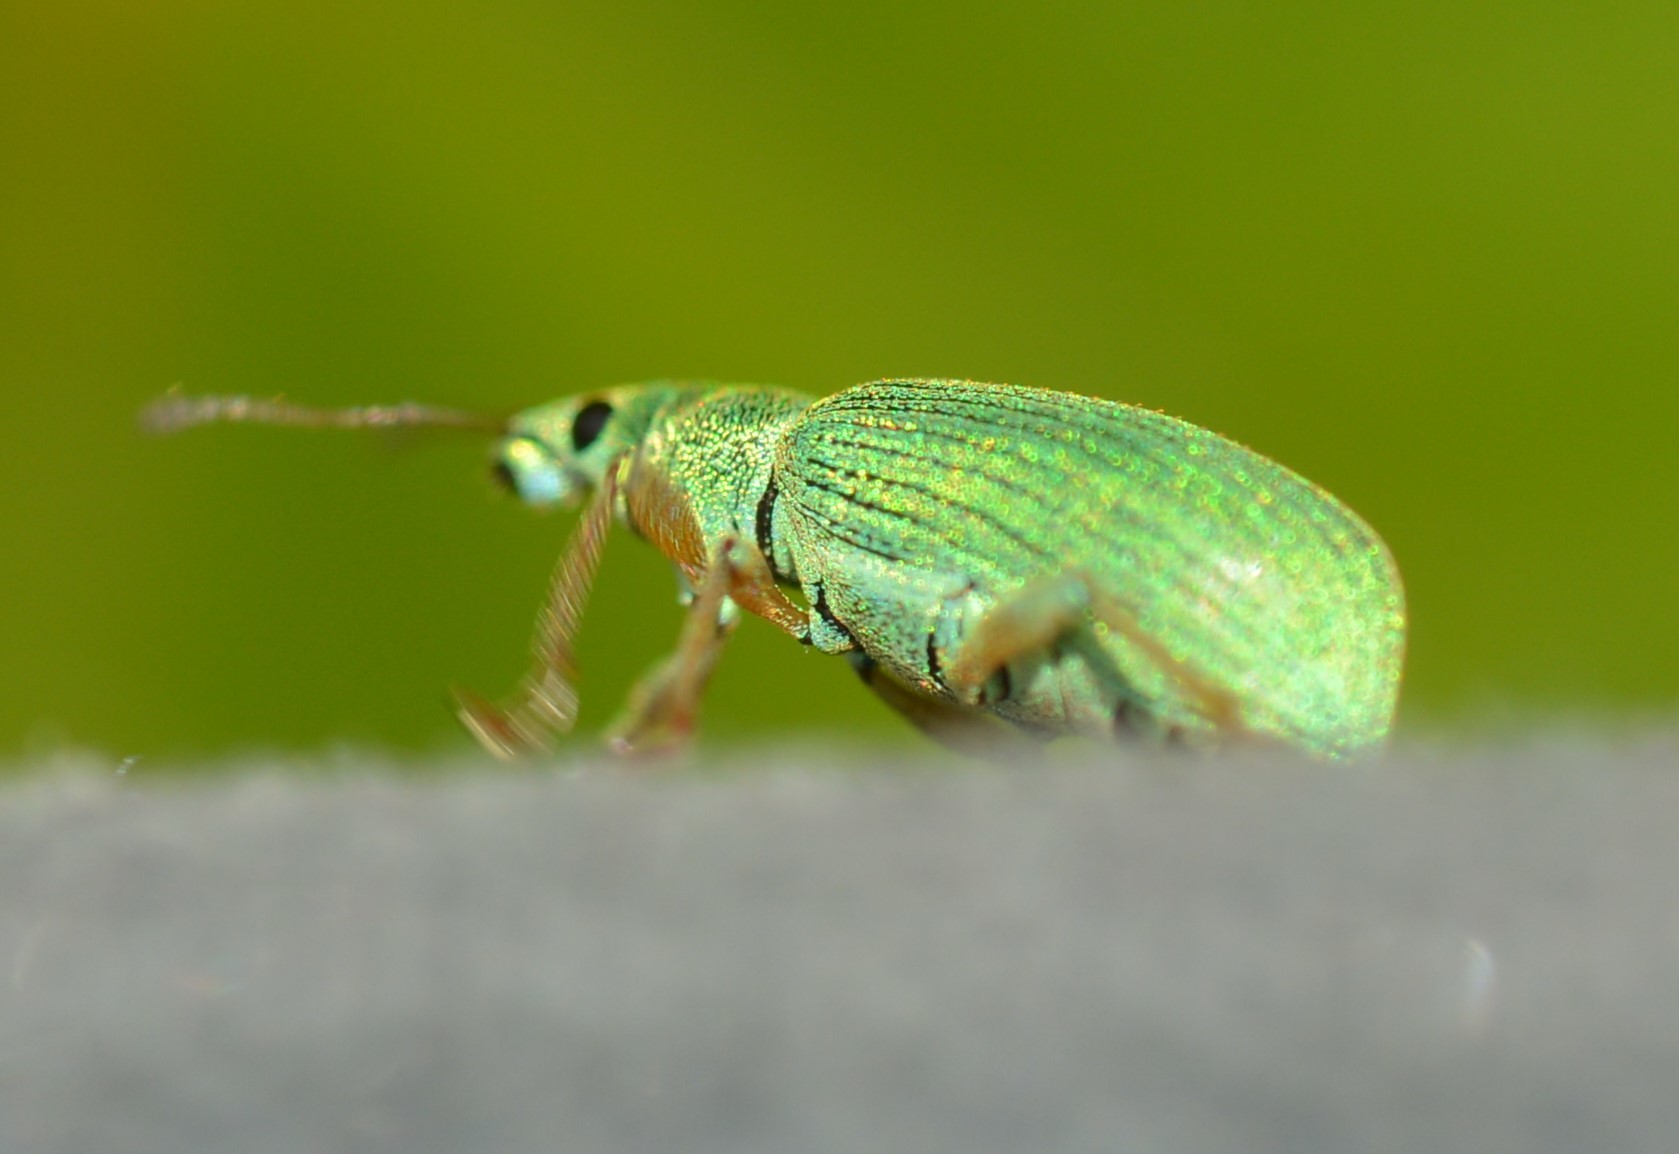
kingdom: Animalia
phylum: Arthropoda
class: Insecta
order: Coleoptera
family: Curculionidae
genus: Polydrusus
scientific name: Polydrusus formosus
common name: Weevil
